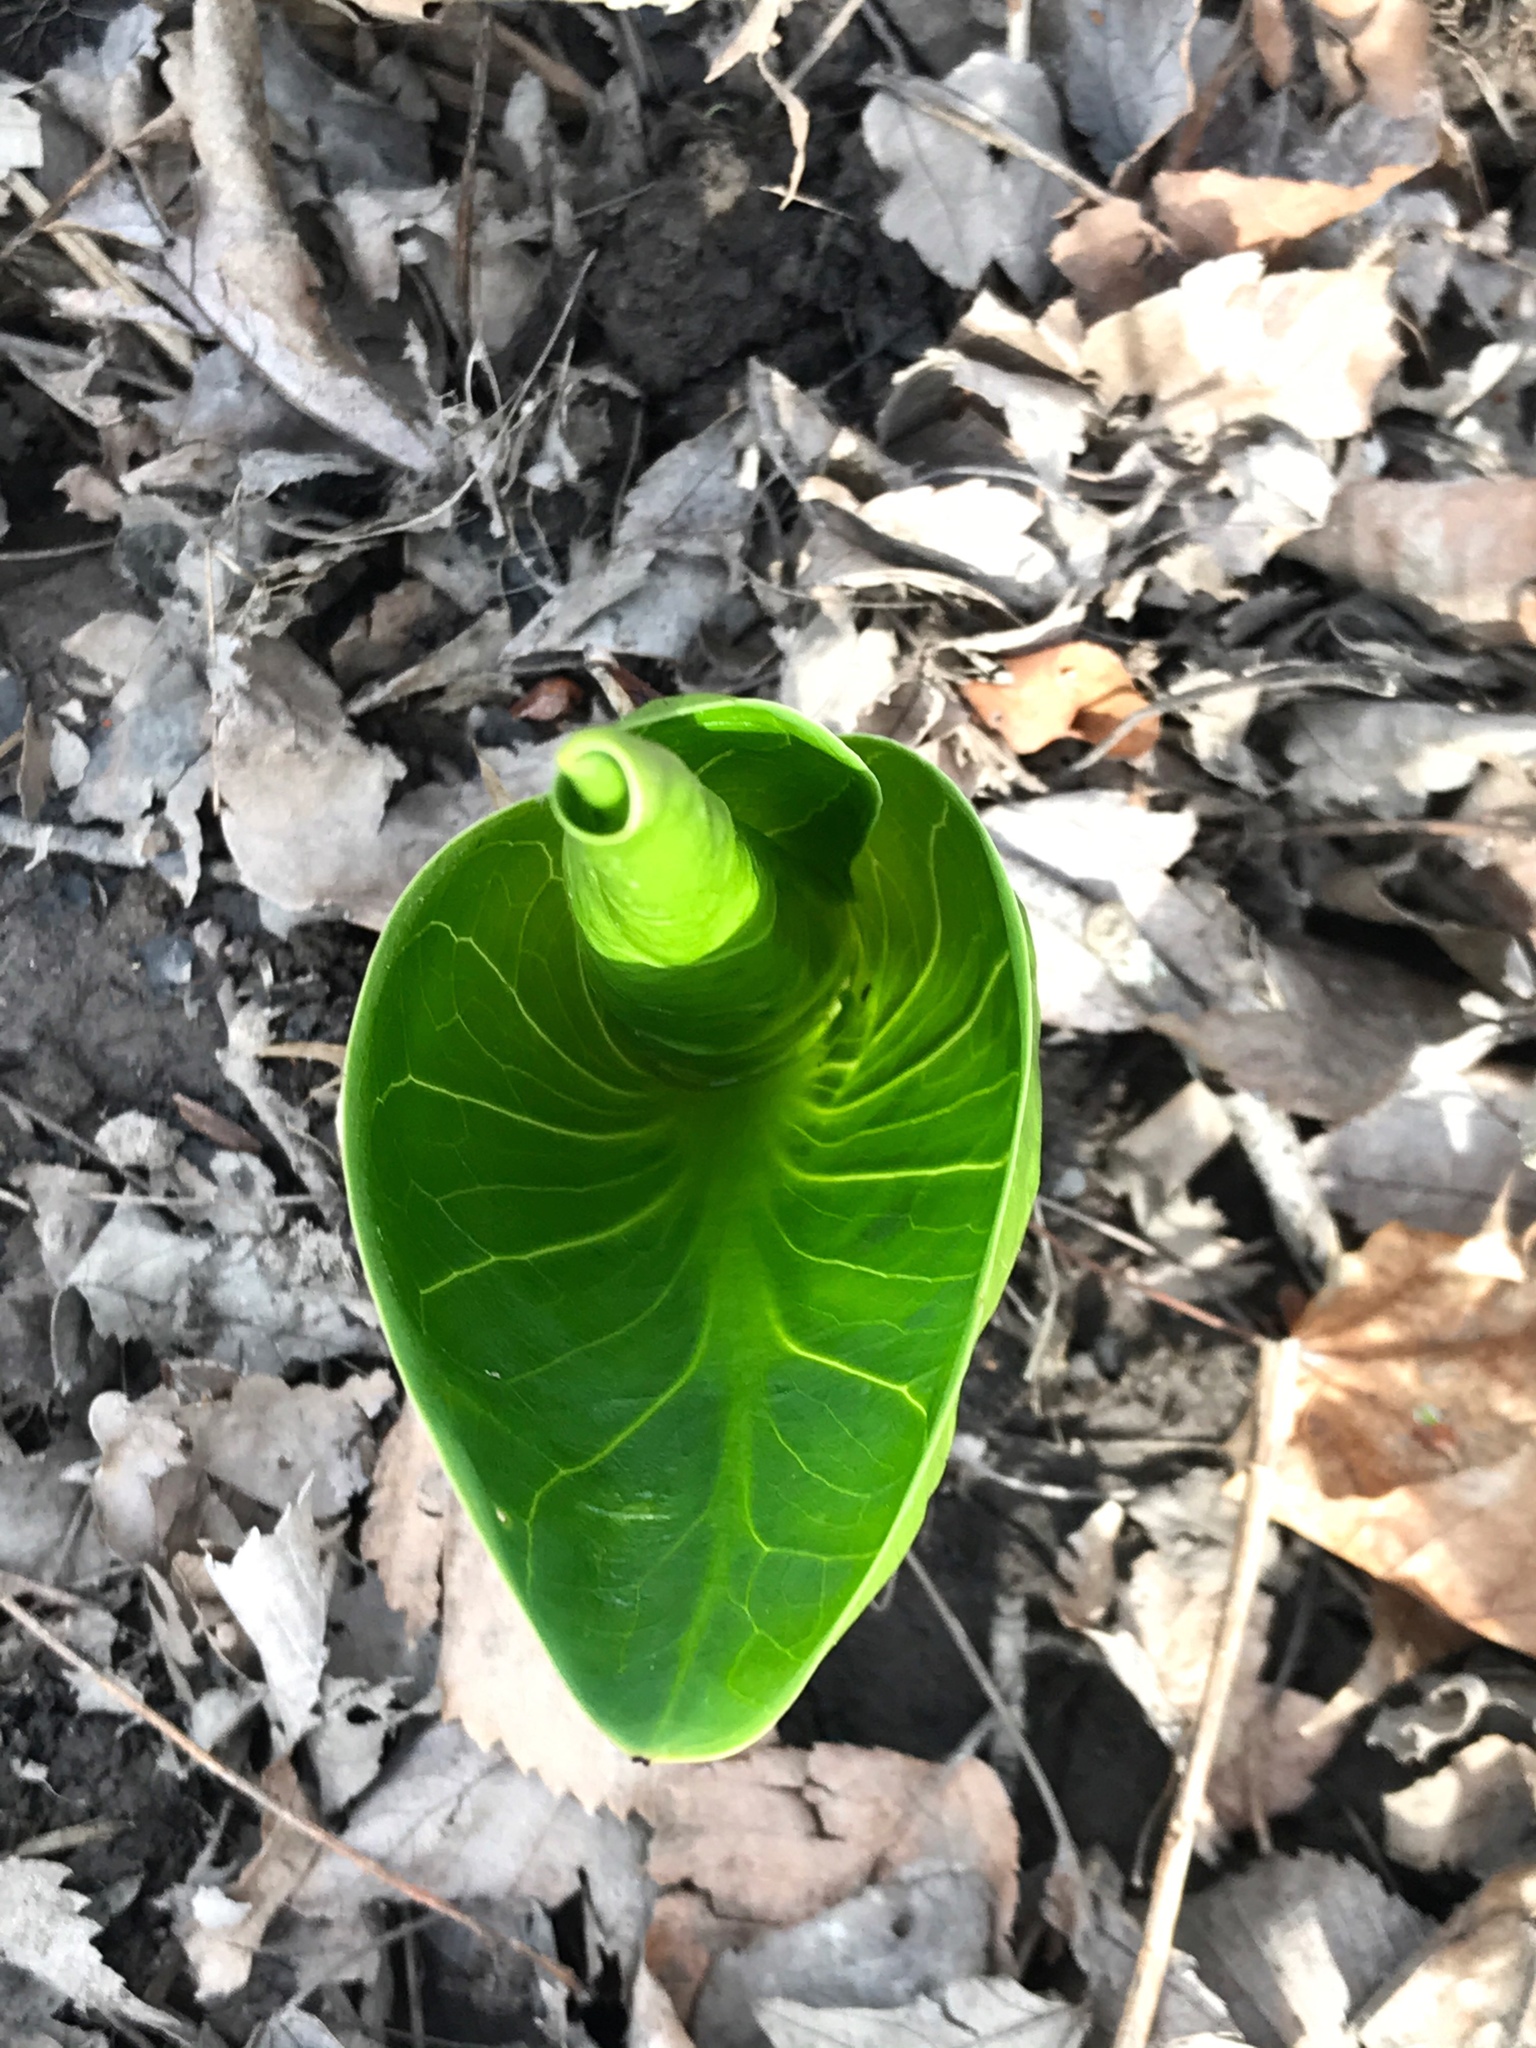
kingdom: Plantae
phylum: Tracheophyta
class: Liliopsida
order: Alismatales
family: Araceae
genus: Symplocarpus
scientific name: Symplocarpus foetidus
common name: Eastern skunk cabbage
